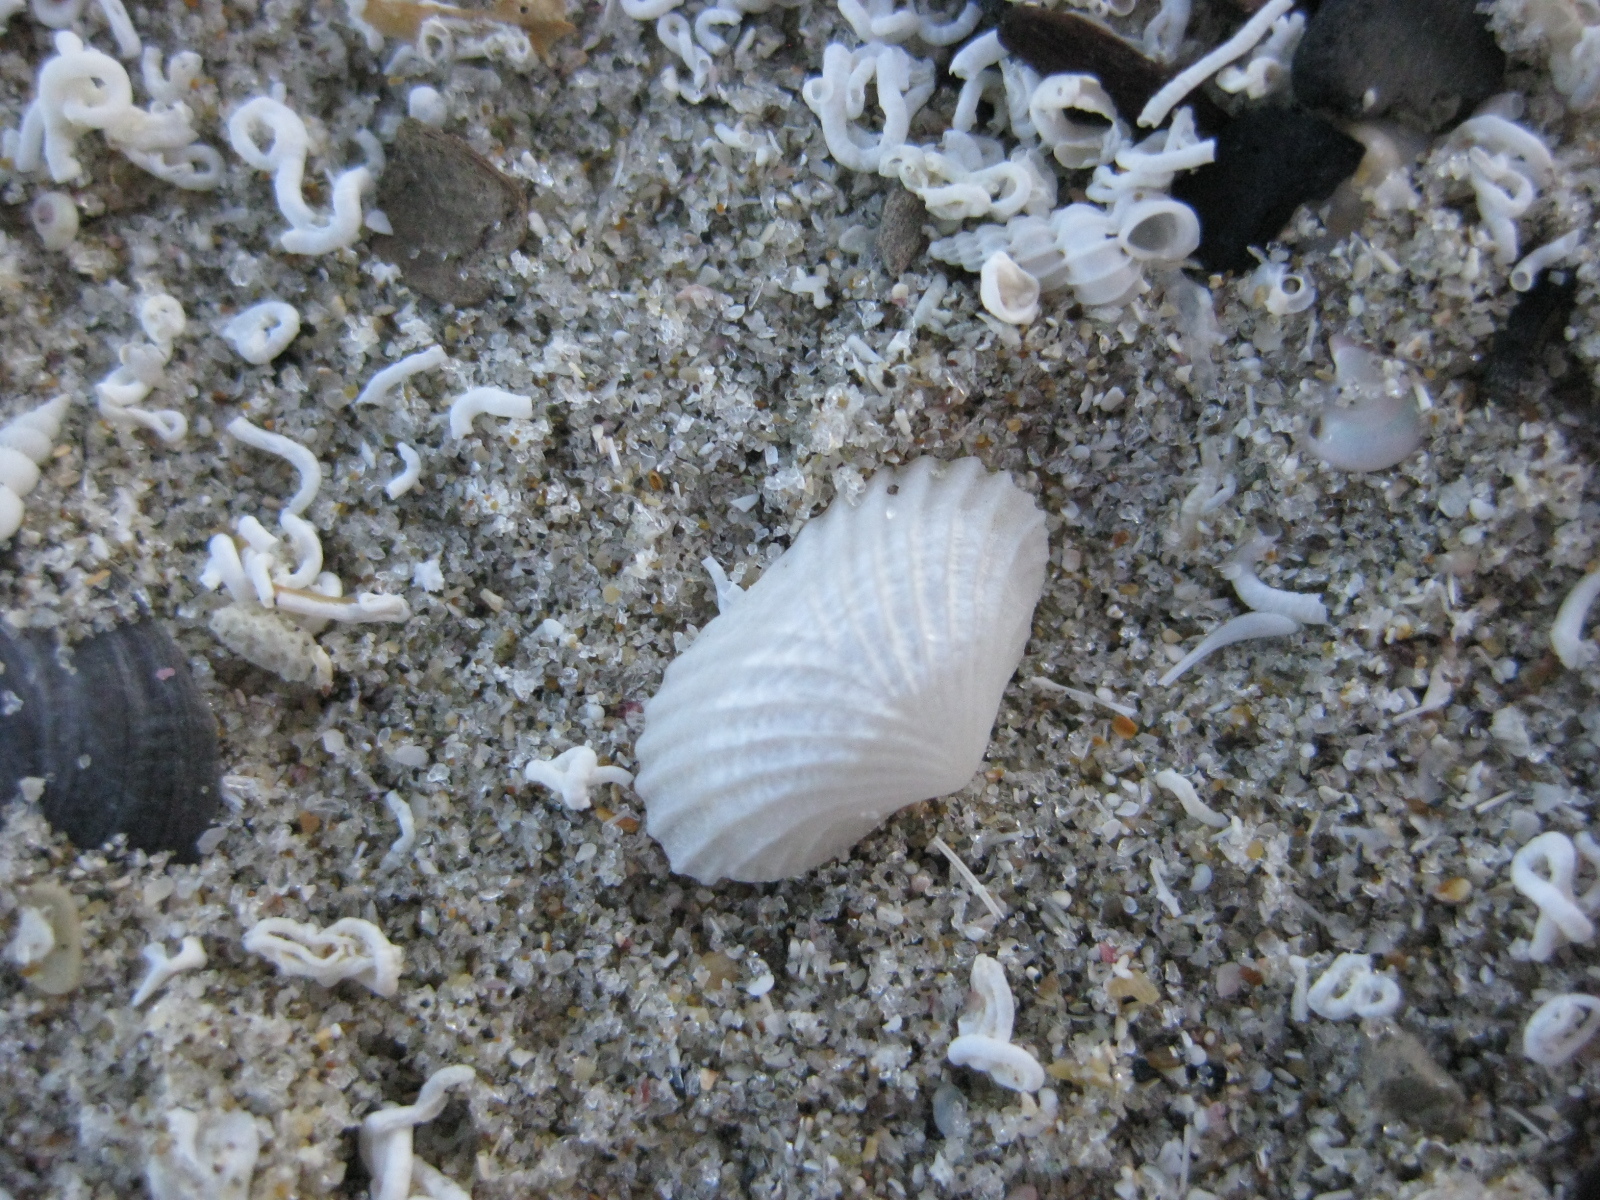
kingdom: Animalia
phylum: Mollusca
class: Bivalvia
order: Galeommatida
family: Lasaeidae
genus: Myllita
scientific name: Myllita stowei
